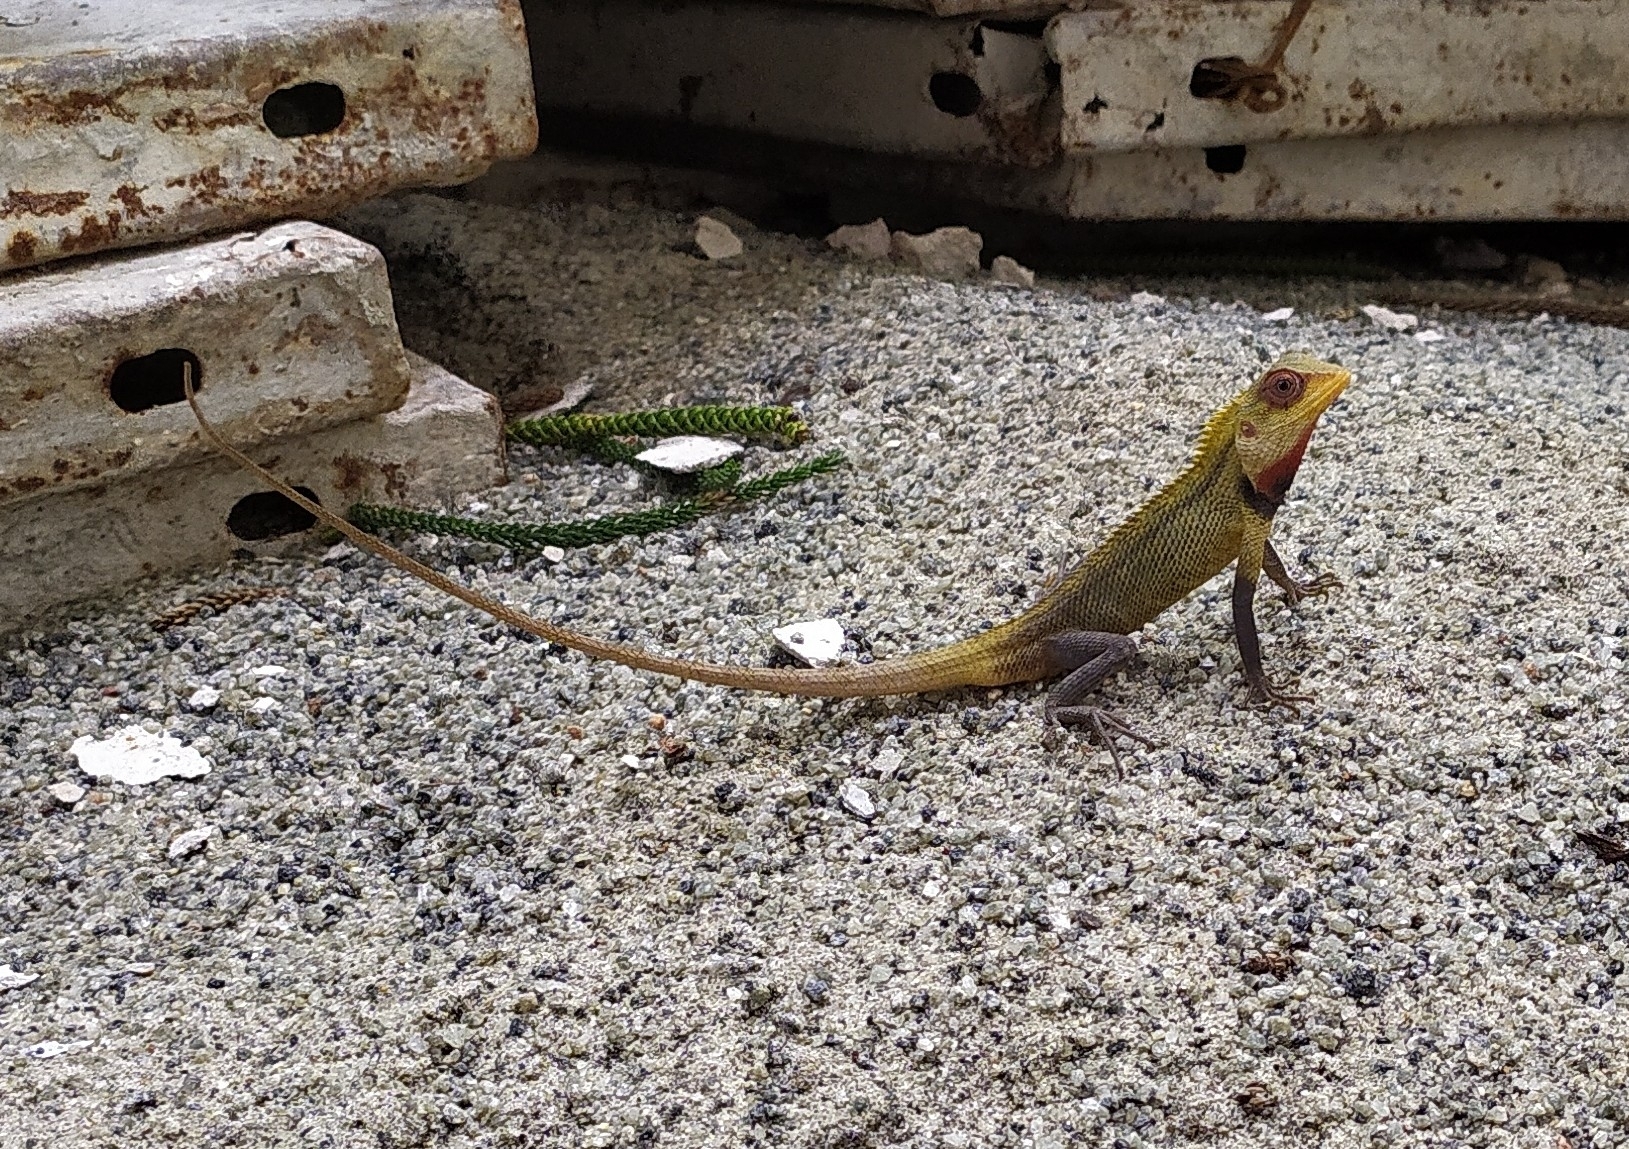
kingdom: Animalia
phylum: Chordata
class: Squamata
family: Agamidae
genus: Calotes
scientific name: Calotes versicolor
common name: Oriental garden lizard
